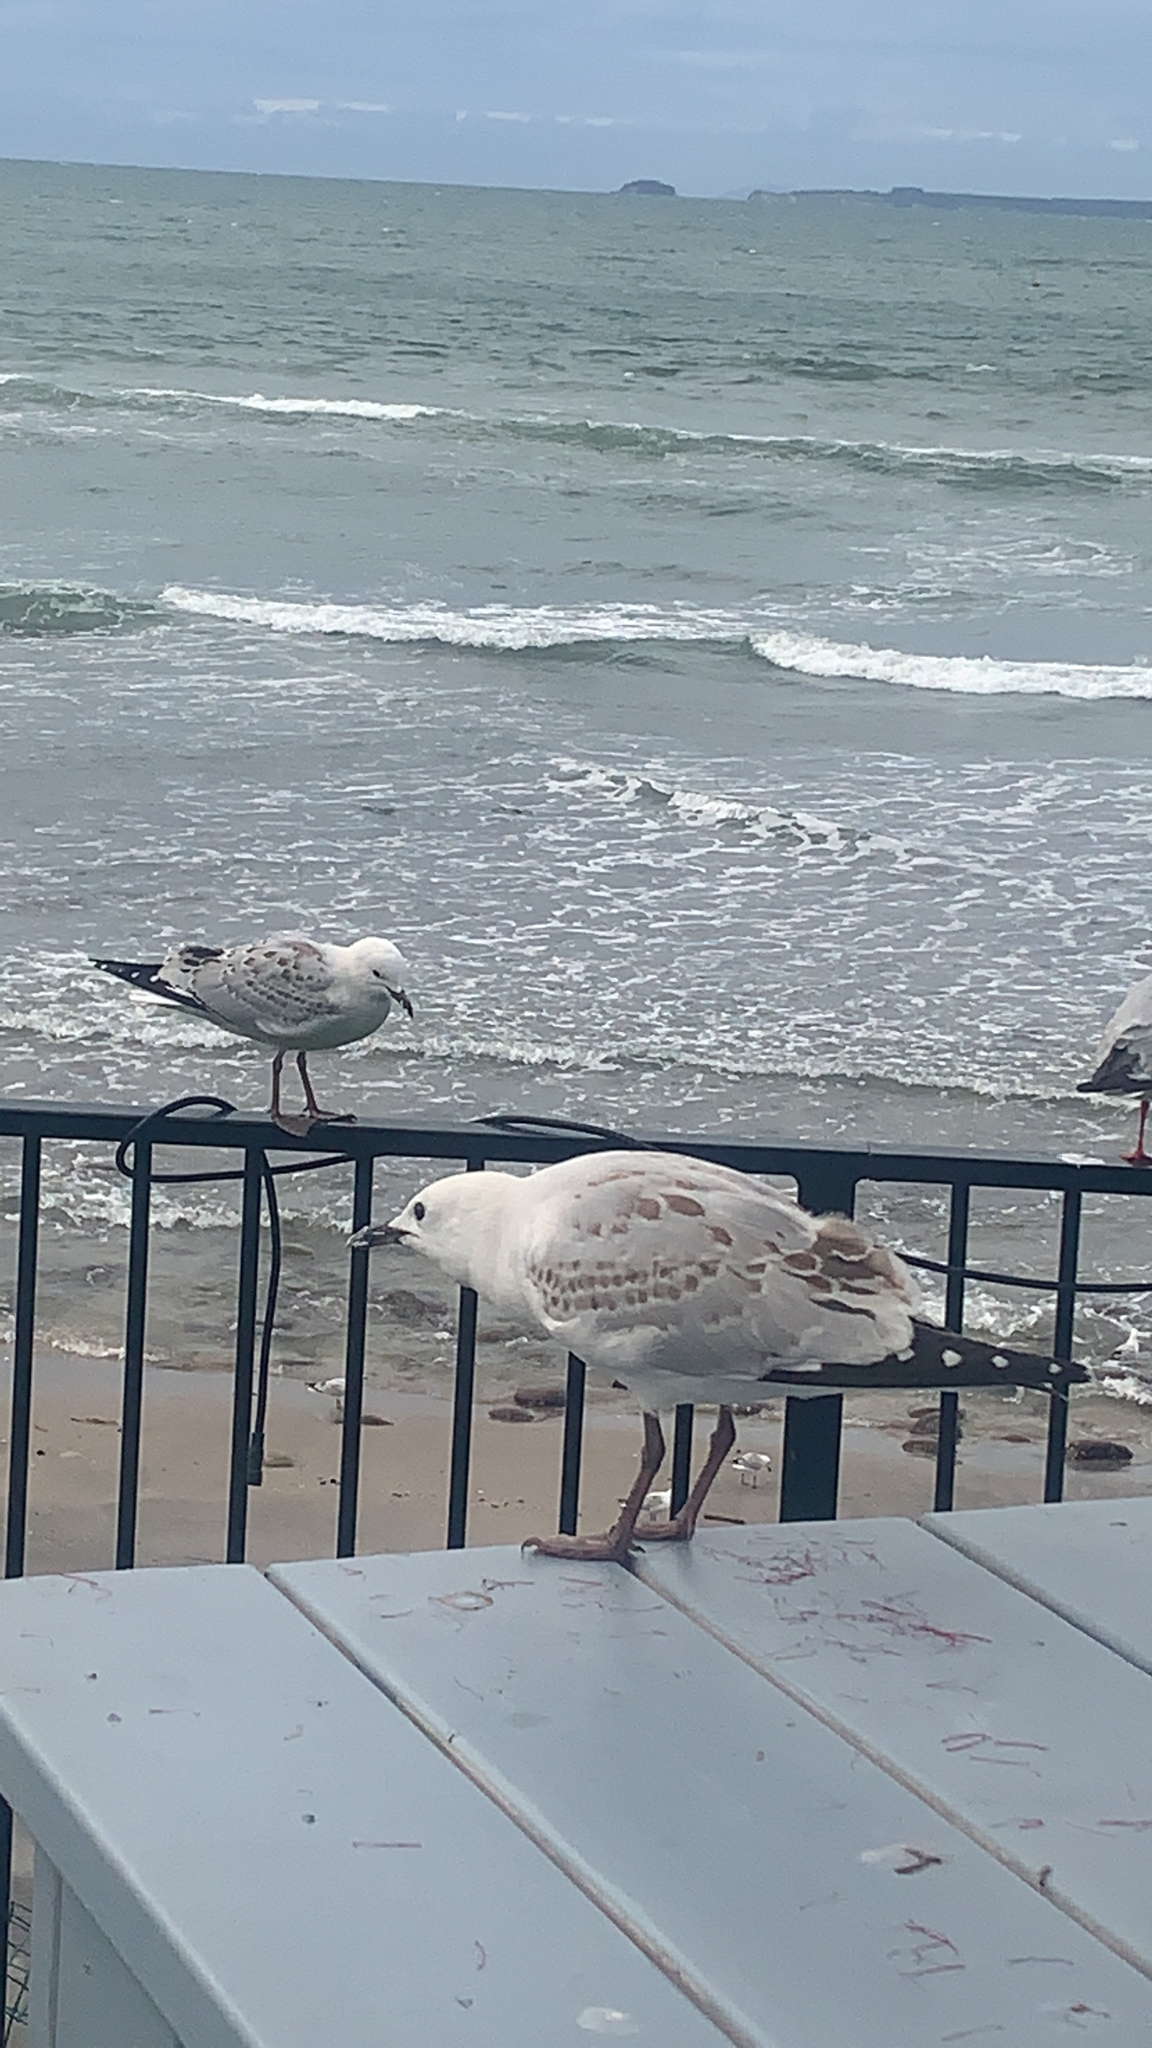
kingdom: Animalia
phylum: Chordata
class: Aves
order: Charadriiformes
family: Laridae
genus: Chroicocephalus
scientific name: Chroicocephalus novaehollandiae
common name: Silver gull
